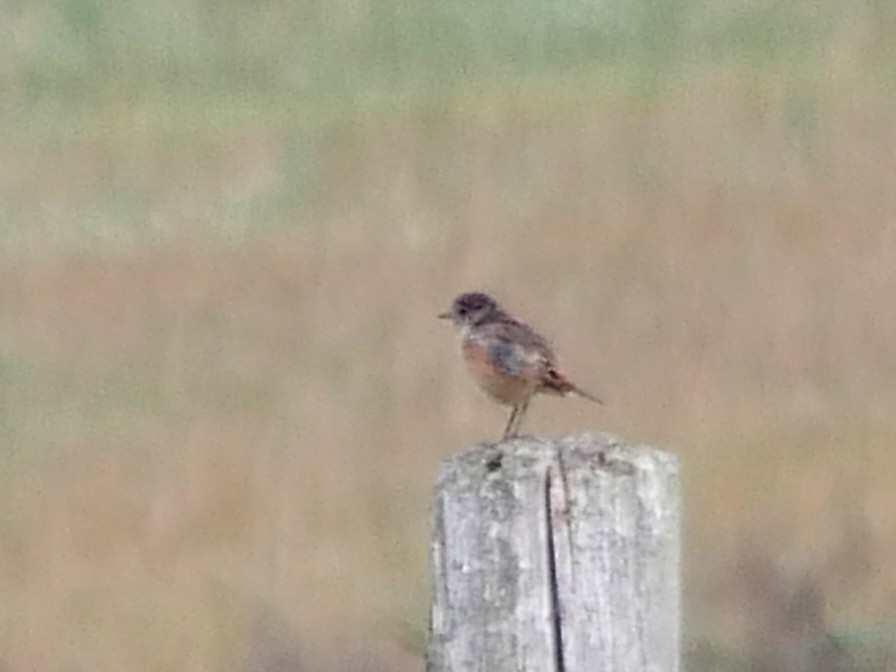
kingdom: Animalia
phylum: Chordata
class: Aves
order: Passeriformes
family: Muscicapidae
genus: Saxicola
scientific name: Saxicola rubicola
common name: European stonechat
